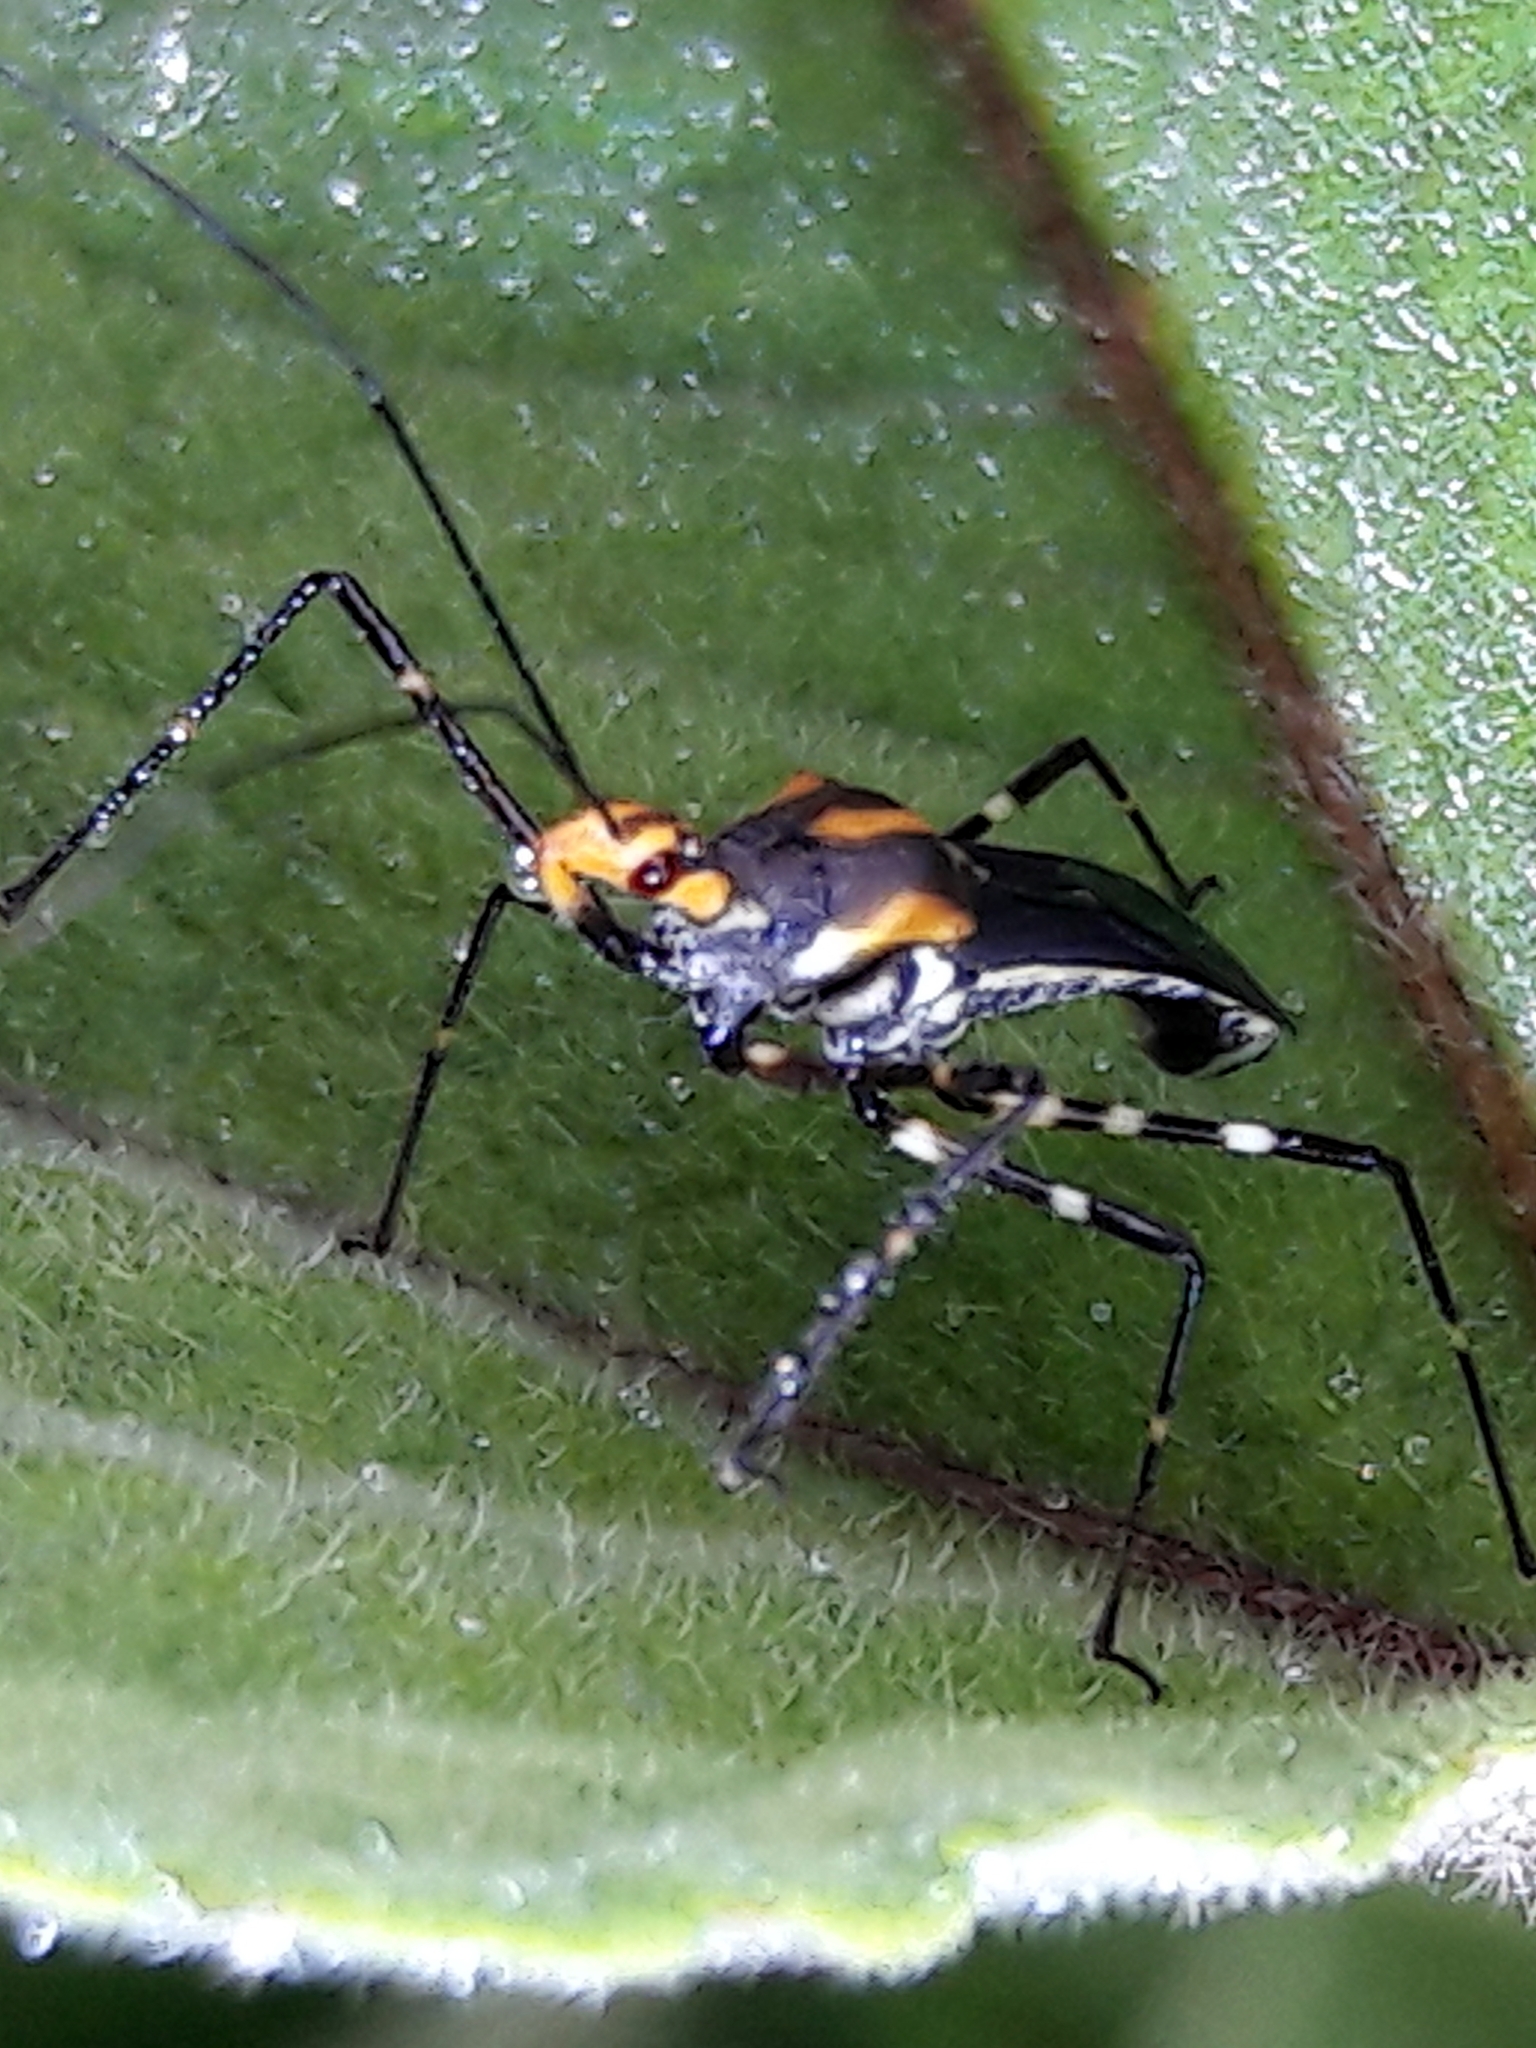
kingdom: Animalia
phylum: Arthropoda
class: Insecta
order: Hemiptera
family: Reduviidae
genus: Zelus
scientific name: Zelus laticornis
